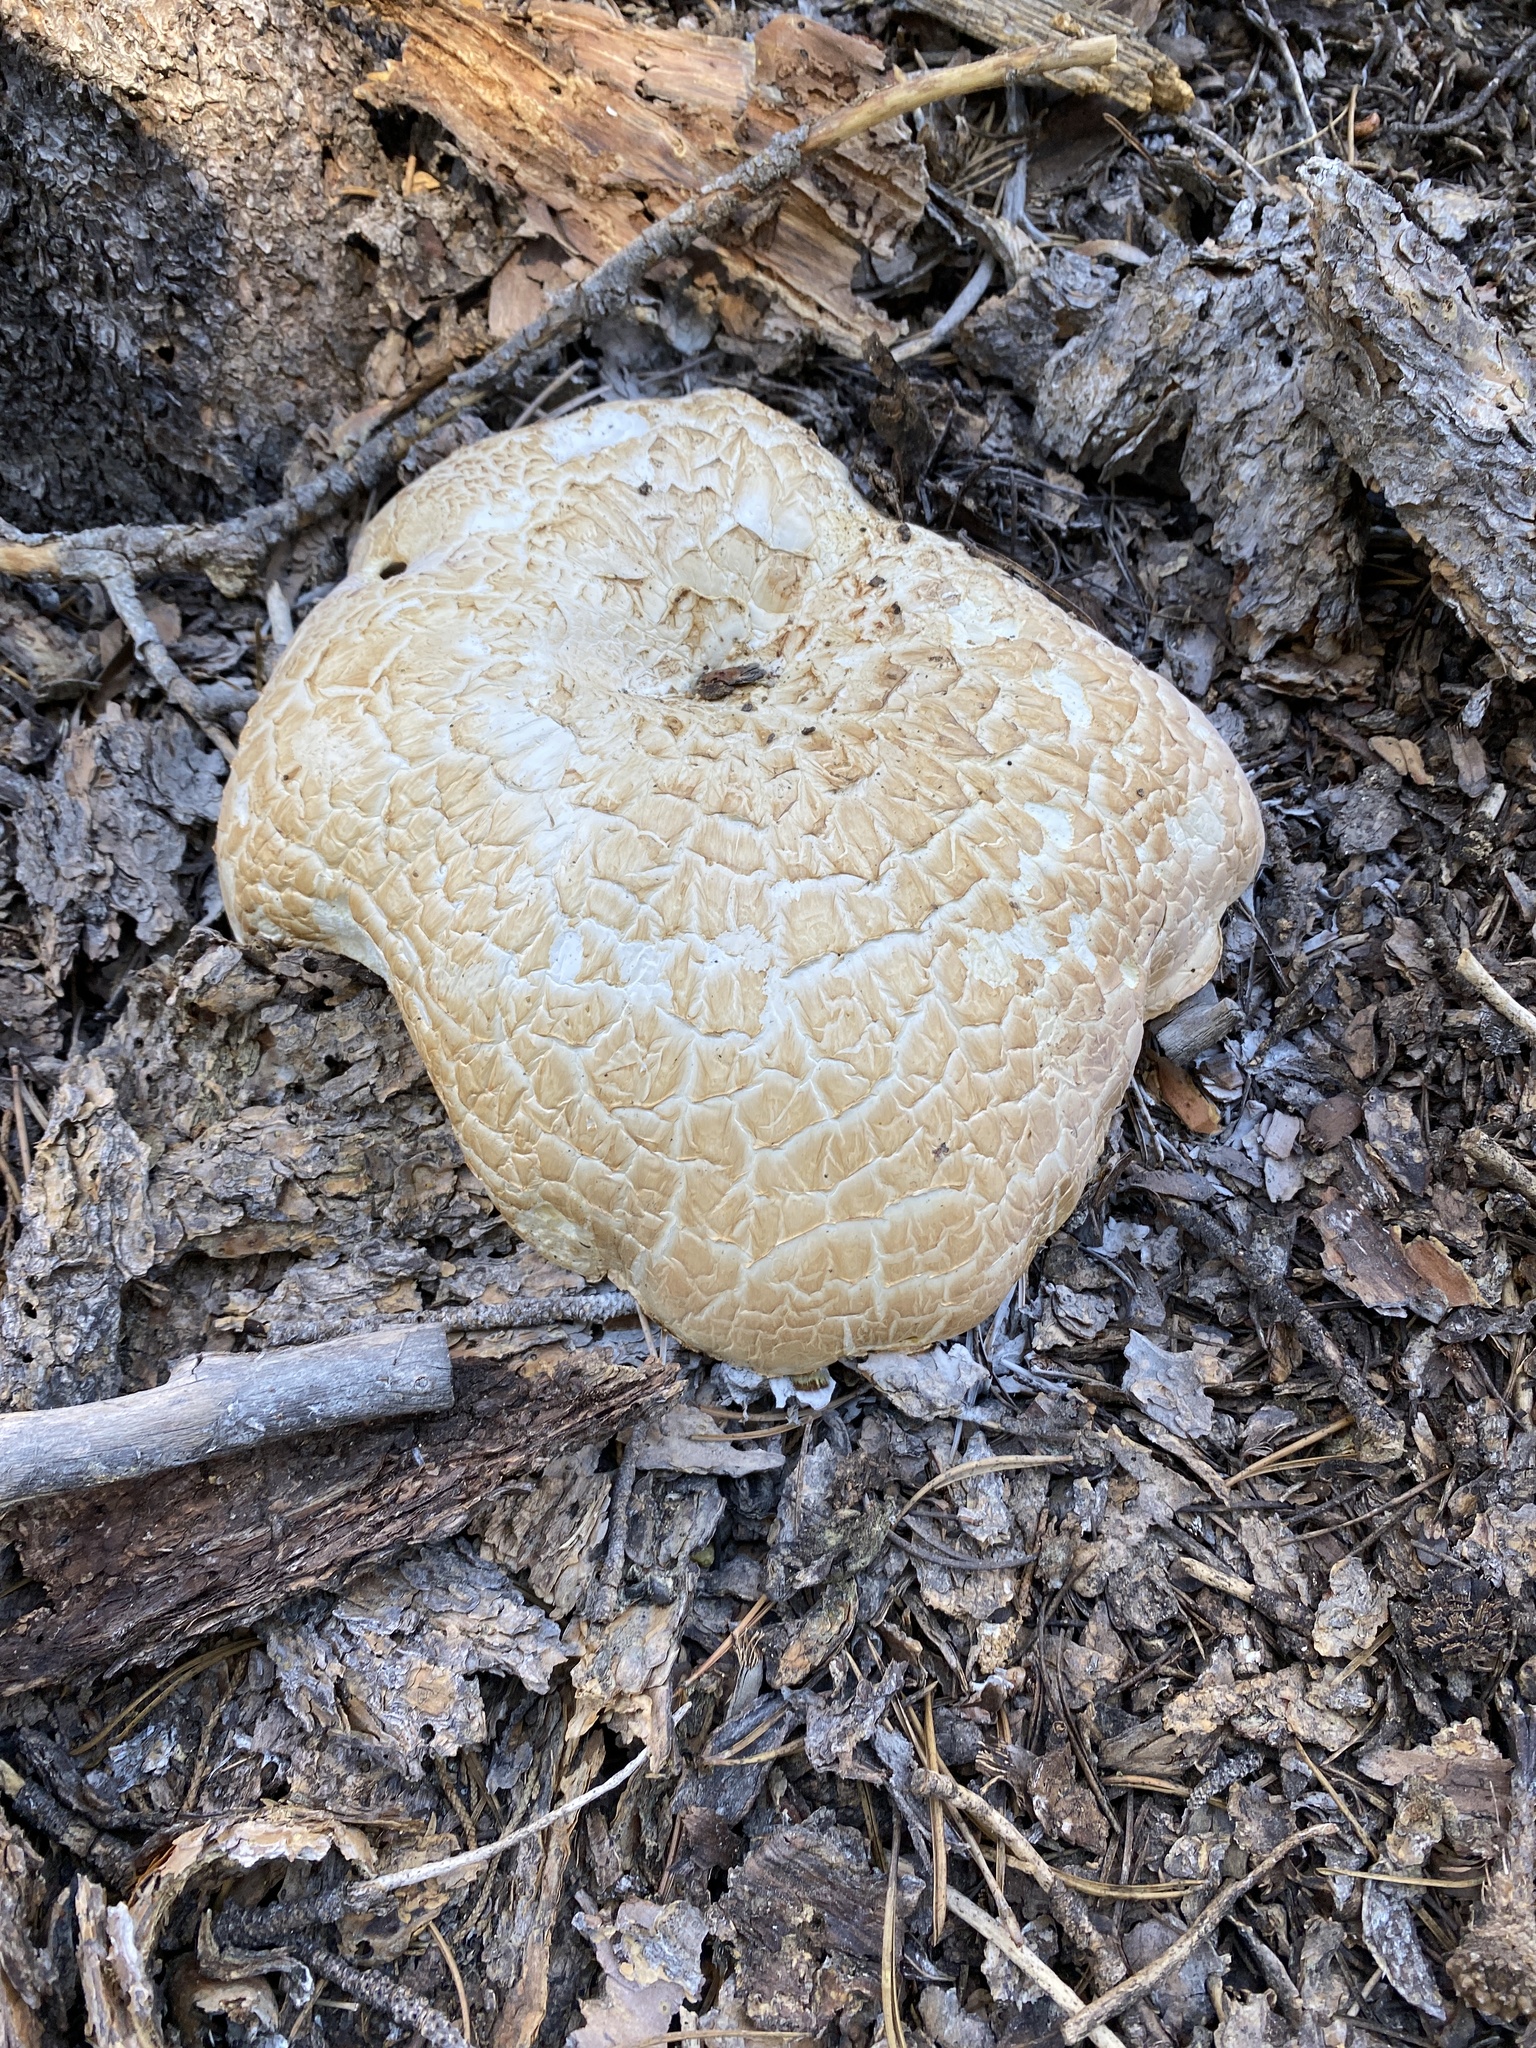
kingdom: Fungi
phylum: Basidiomycota
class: Agaricomycetes
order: Gloeophyllales
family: Gloeophyllaceae
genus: Neolentinus
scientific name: Neolentinus ponderosus
